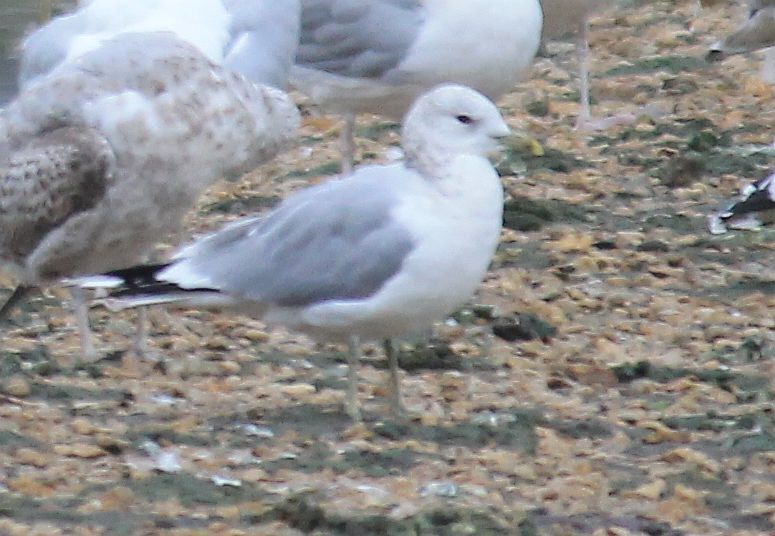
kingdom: Animalia
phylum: Chordata
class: Aves
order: Charadriiformes
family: Laridae
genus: Larus
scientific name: Larus canus
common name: Mew gull
